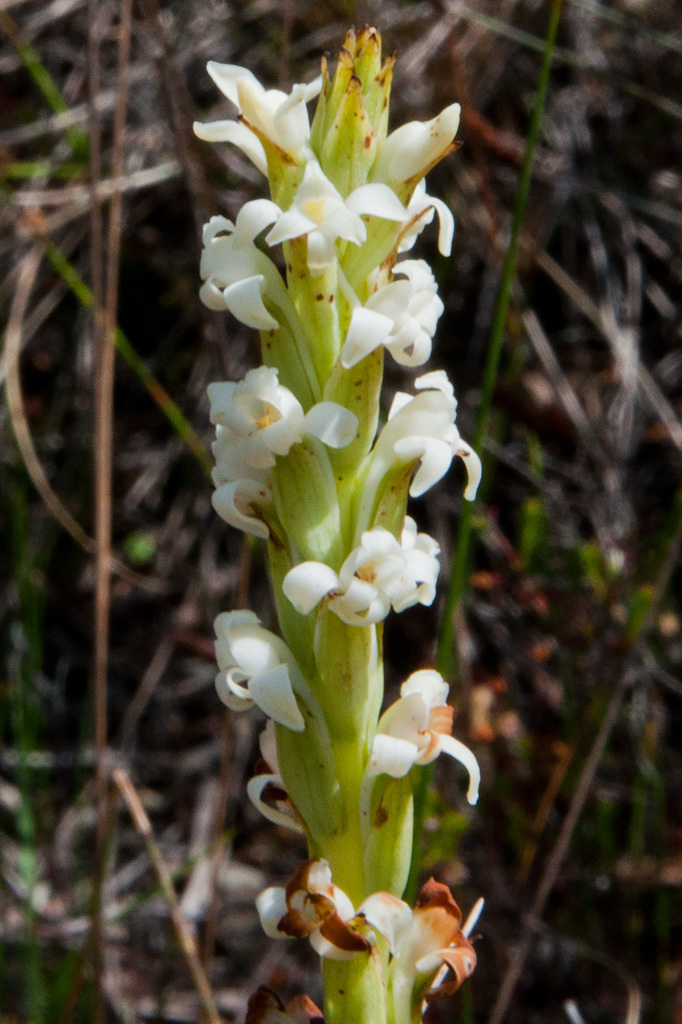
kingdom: Plantae
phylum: Tracheophyta
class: Liliopsida
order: Asparagales
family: Orchidaceae
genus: Satyrium
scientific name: Satyrium stenopetalum
